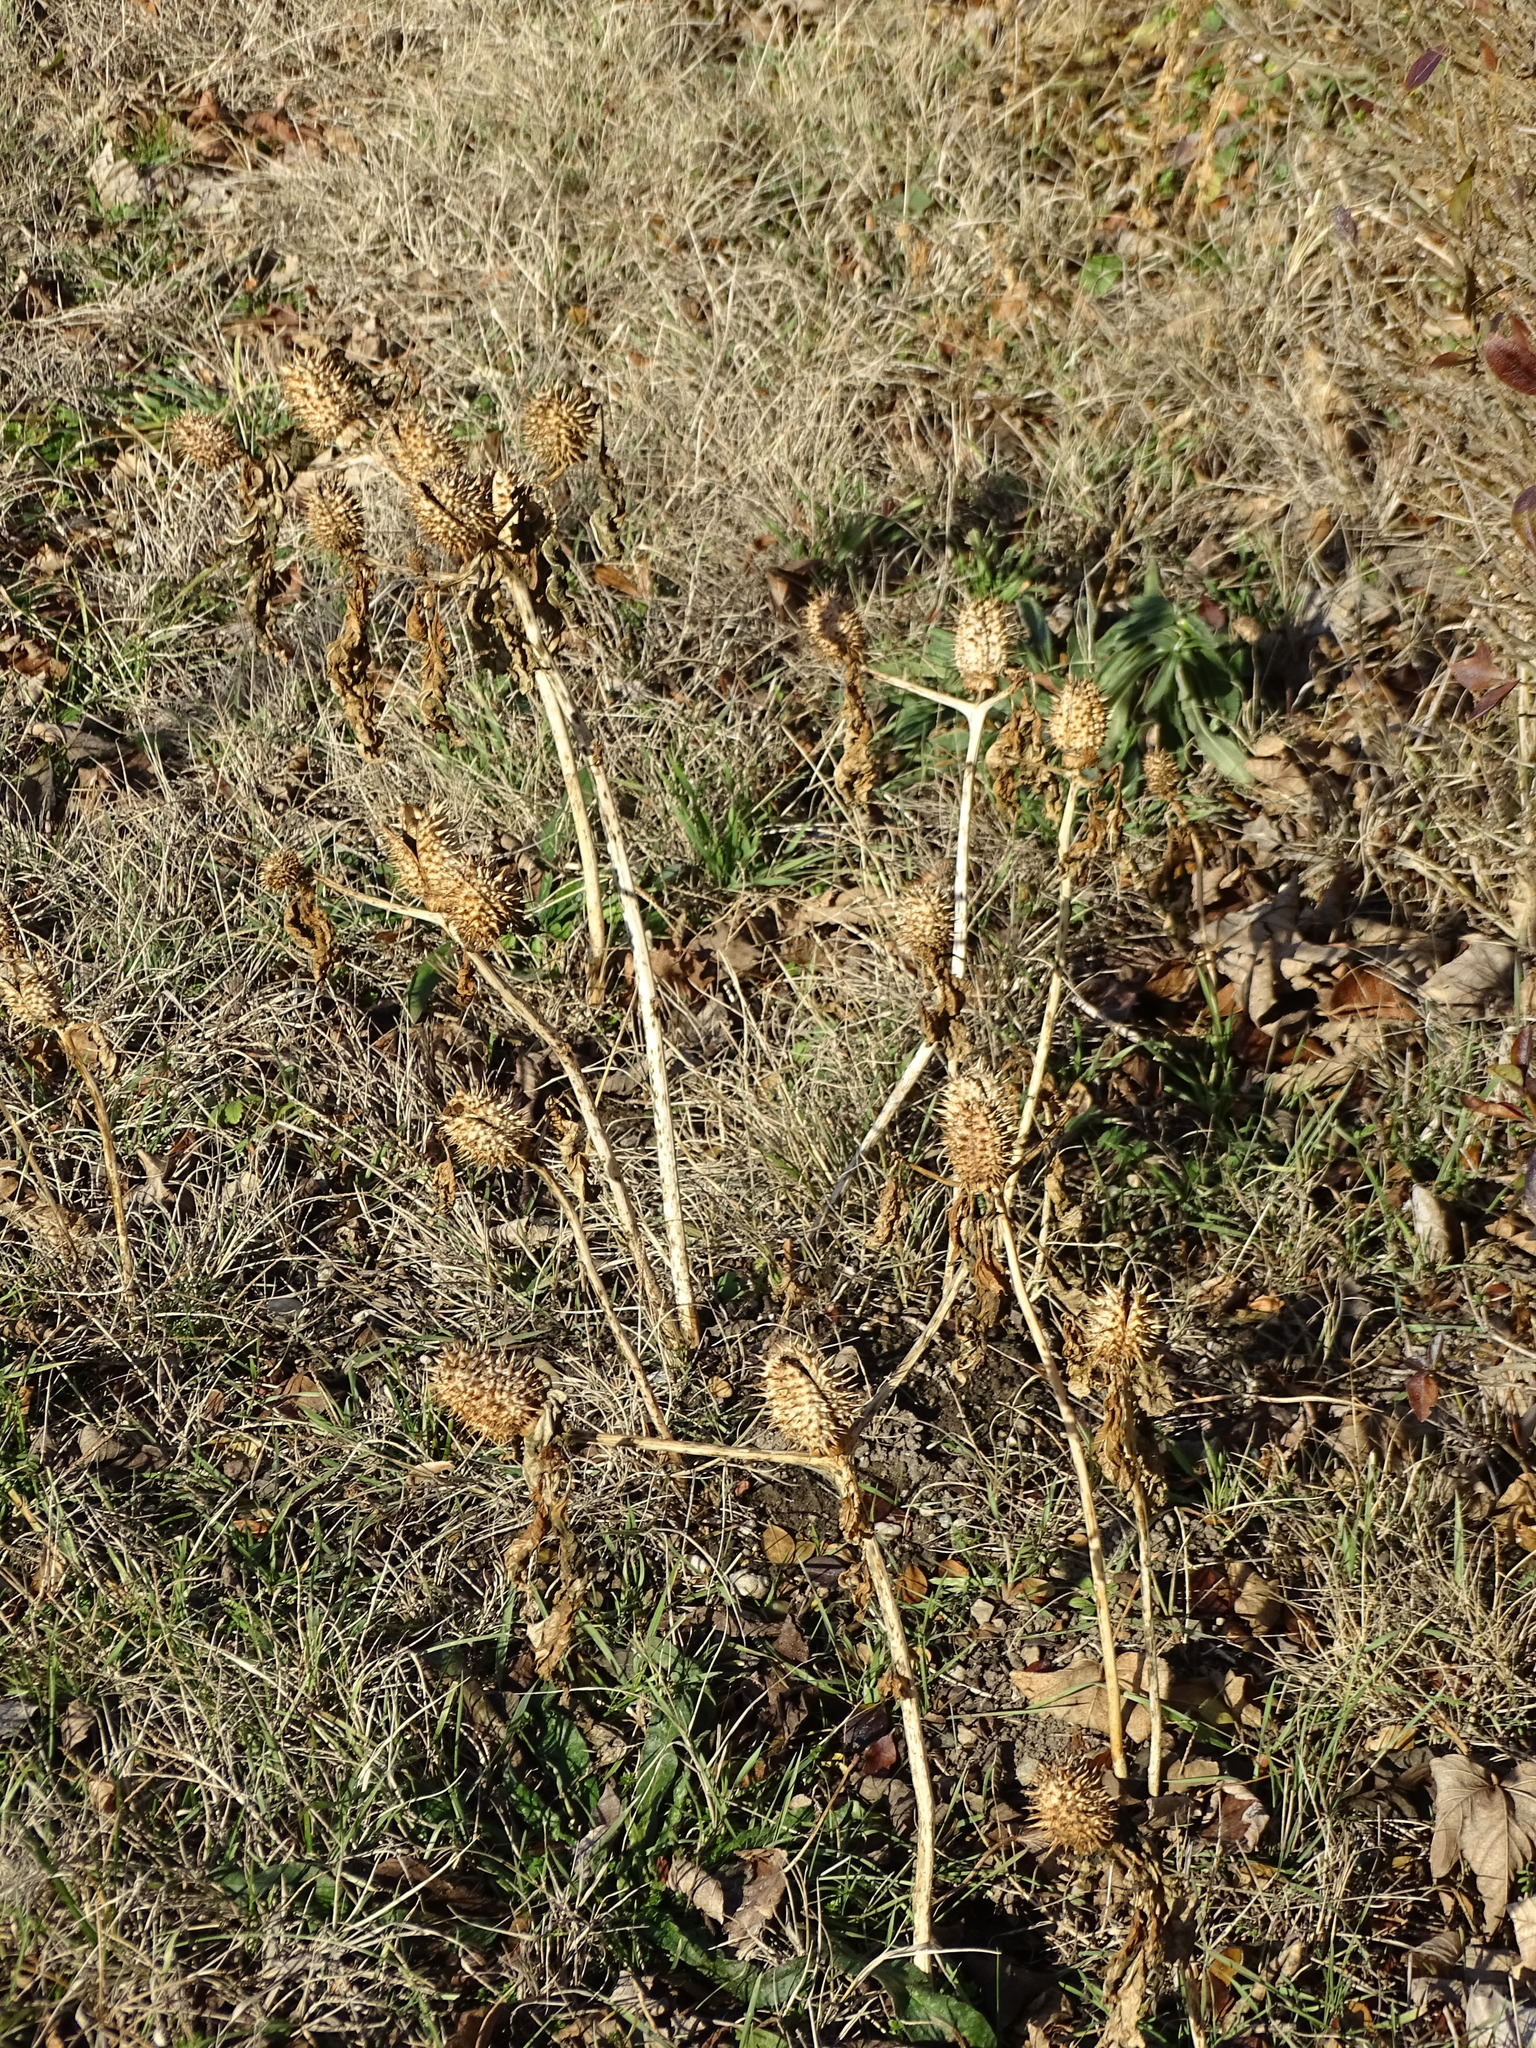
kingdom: Plantae
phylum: Tracheophyta
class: Magnoliopsida
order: Solanales
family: Solanaceae
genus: Datura
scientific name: Datura stramonium
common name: Thorn-apple
